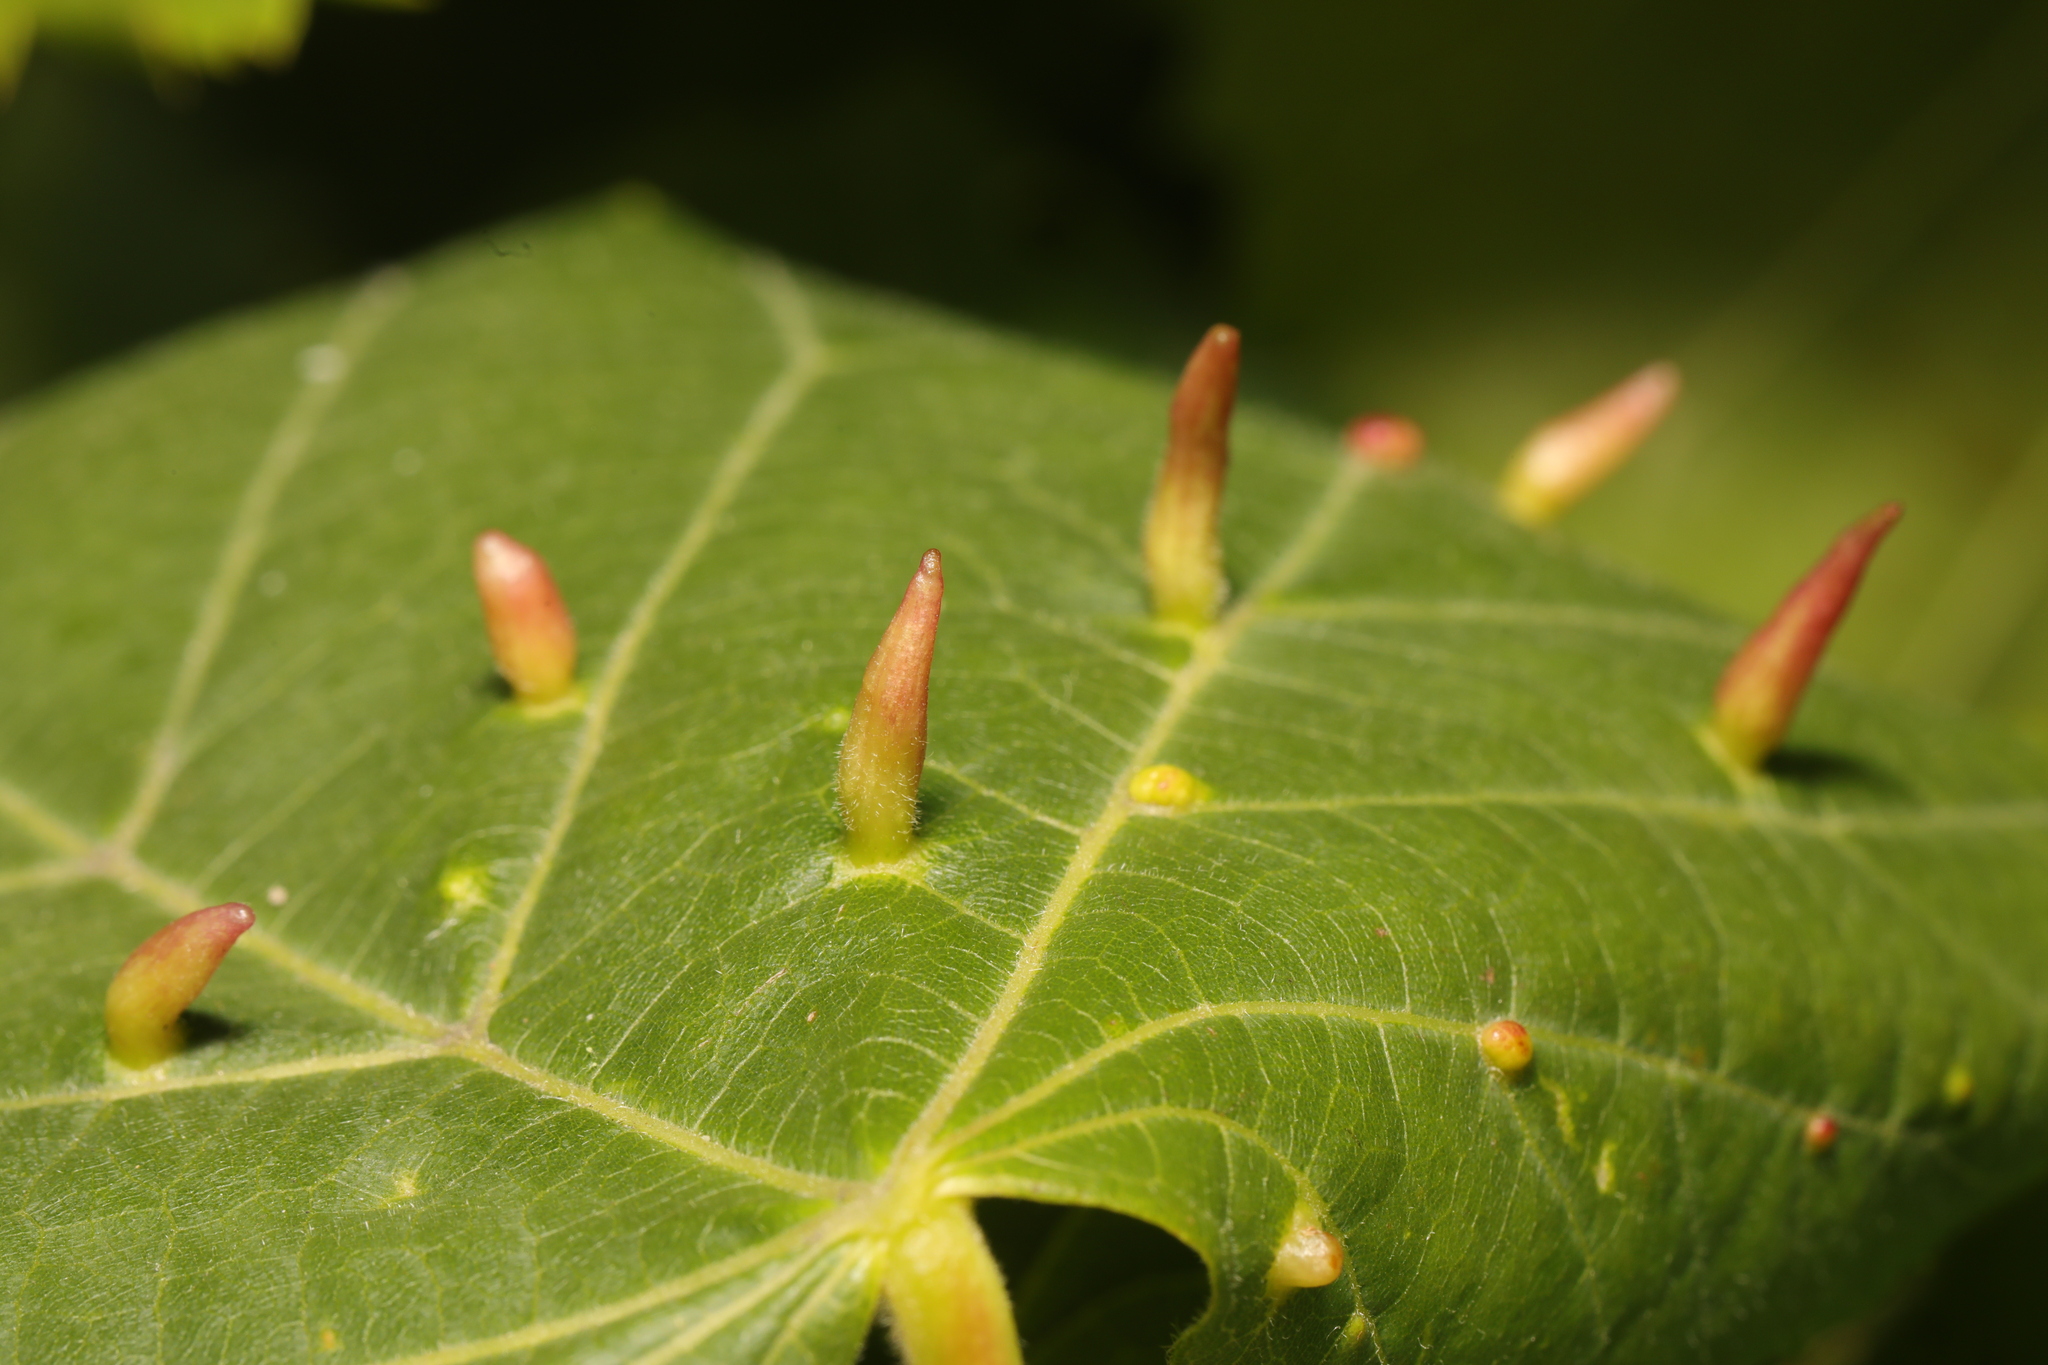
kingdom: Animalia
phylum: Arthropoda
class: Arachnida
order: Trombidiformes
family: Eriophyidae
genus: Eriophyes
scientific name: Eriophyes tiliae
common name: Red nail gall mite
